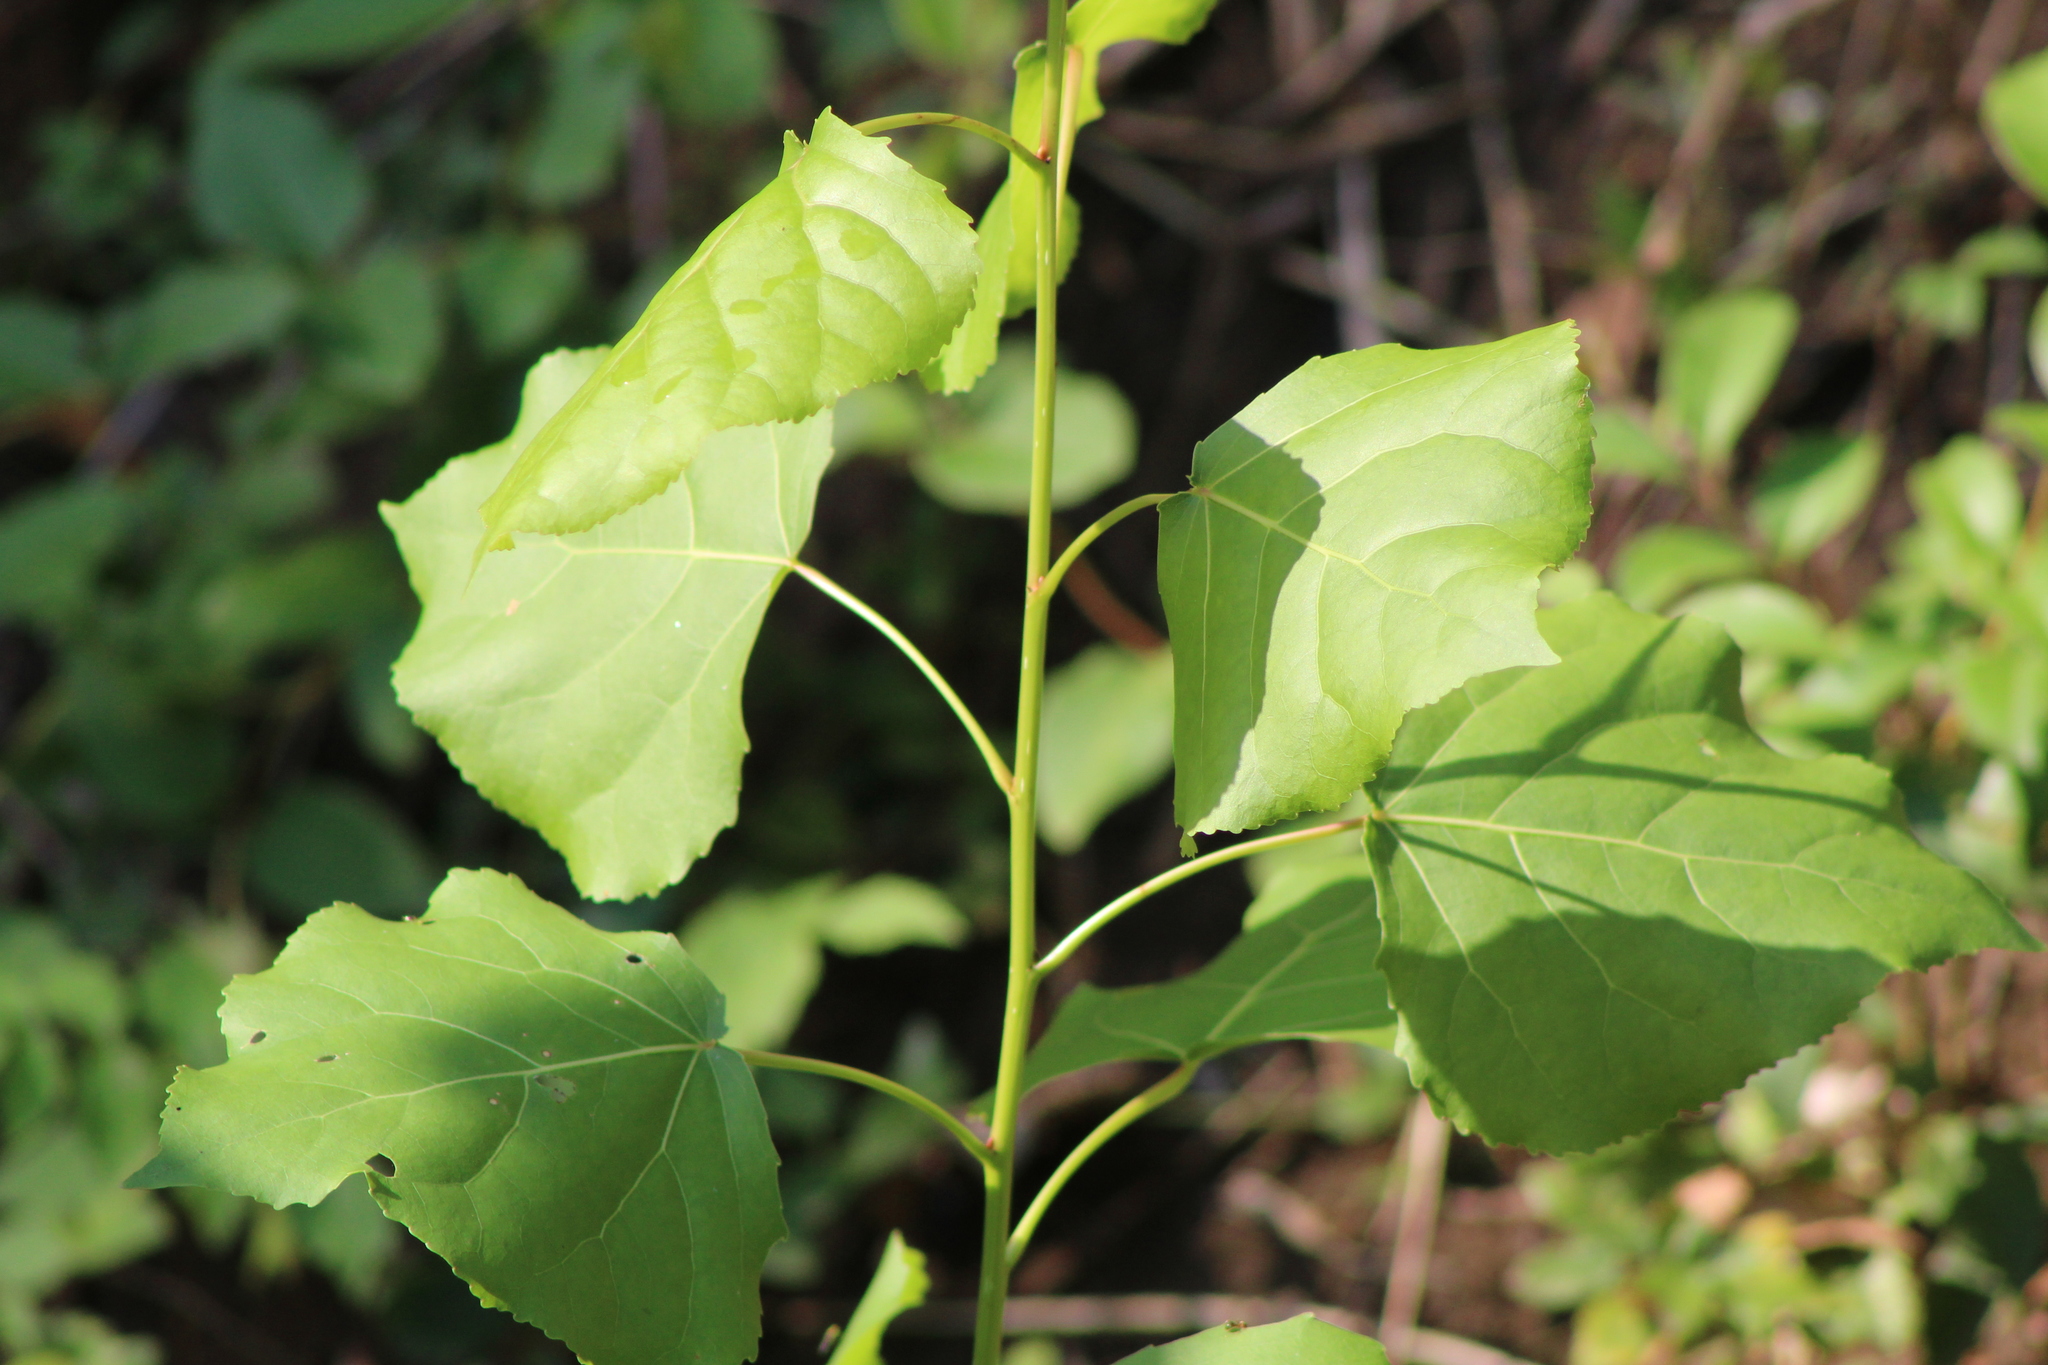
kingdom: Plantae
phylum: Tracheophyta
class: Magnoliopsida
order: Malpighiales
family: Salicaceae
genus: Populus
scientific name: Populus deltoides
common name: Eastern cottonwood
